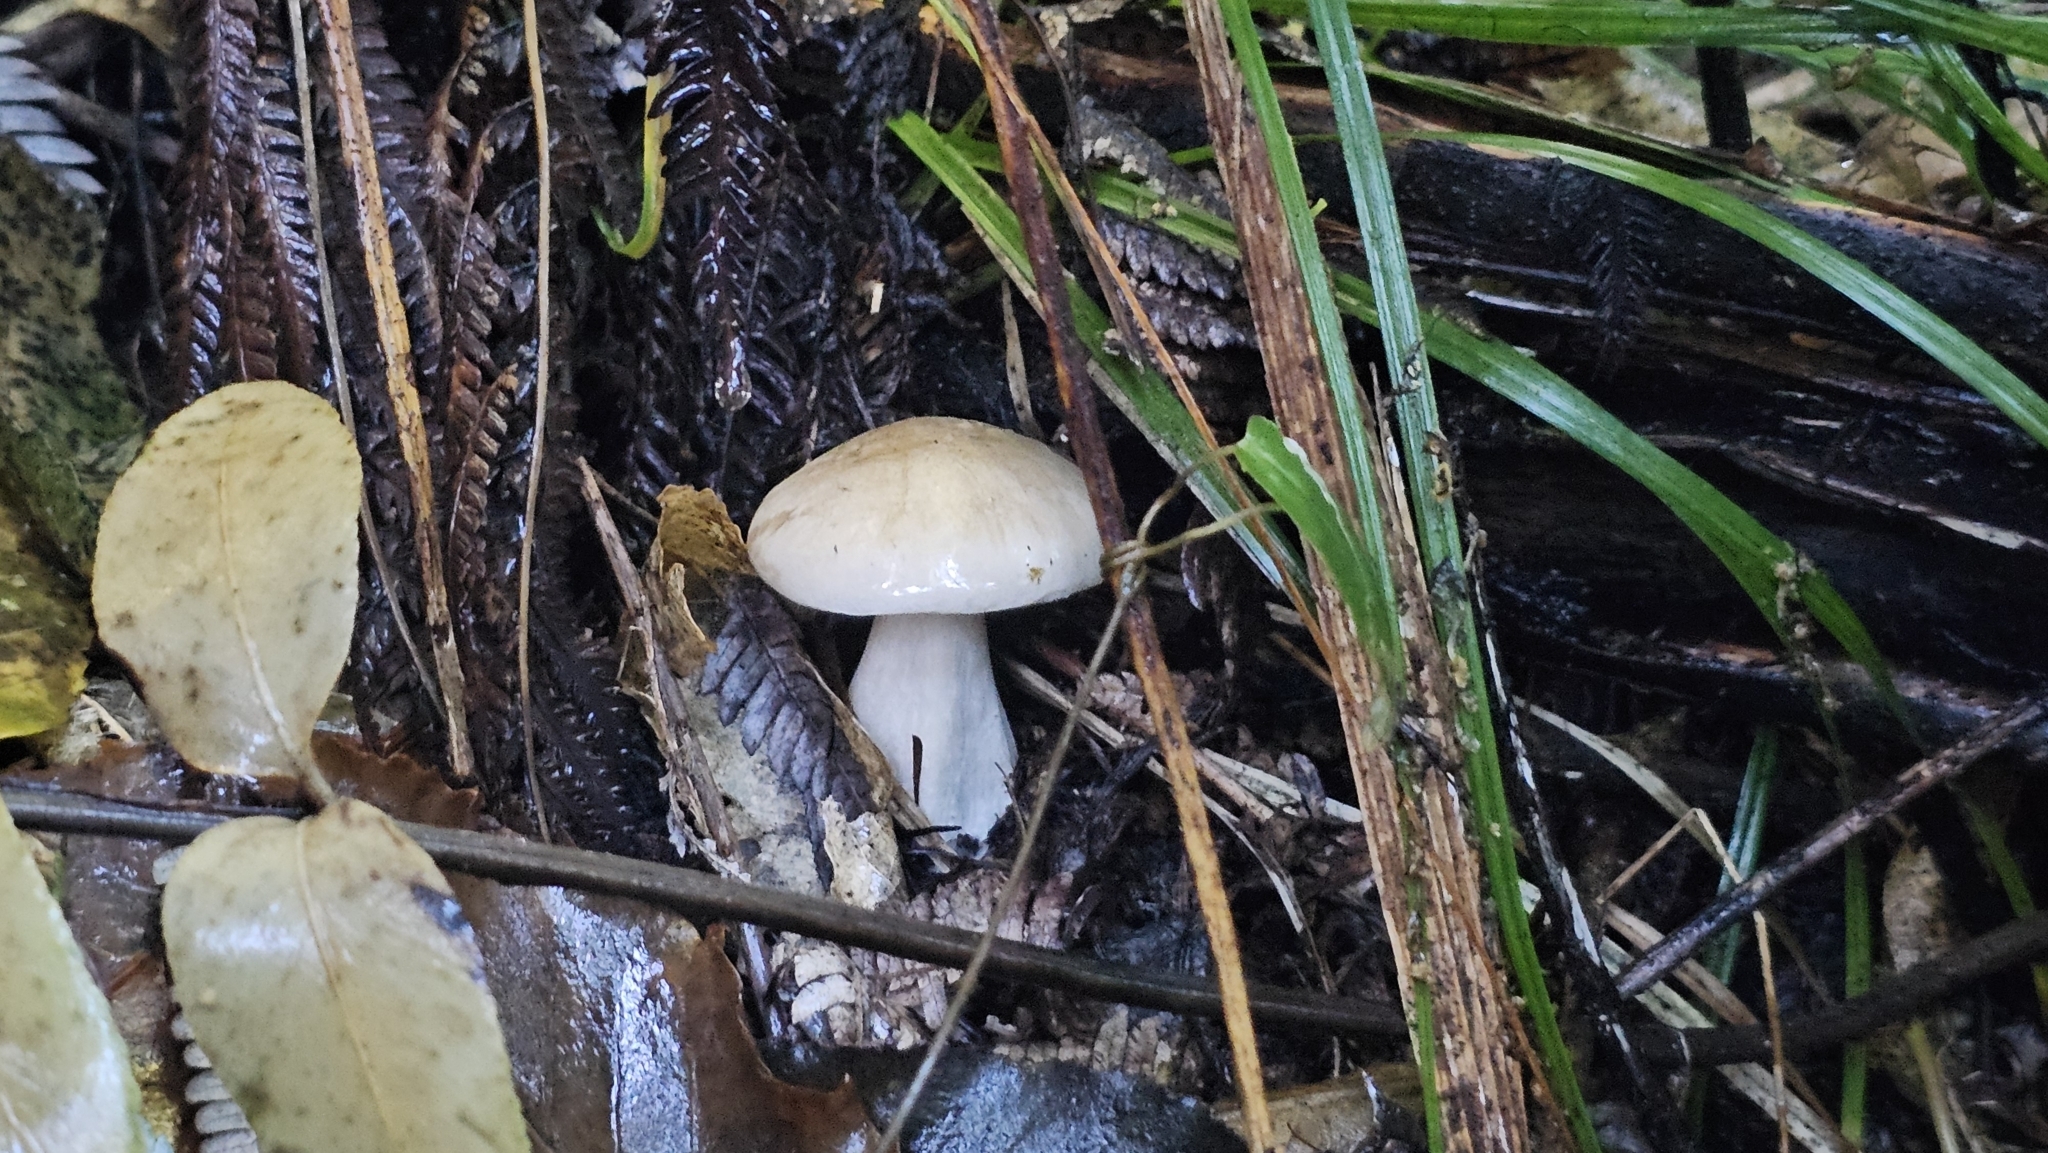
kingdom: Fungi
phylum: Basidiomycota
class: Agaricomycetes
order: Agaricales
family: Tricholomataceae
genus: Clitocybe
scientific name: Clitocybe nebularis
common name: Clouded agaric
